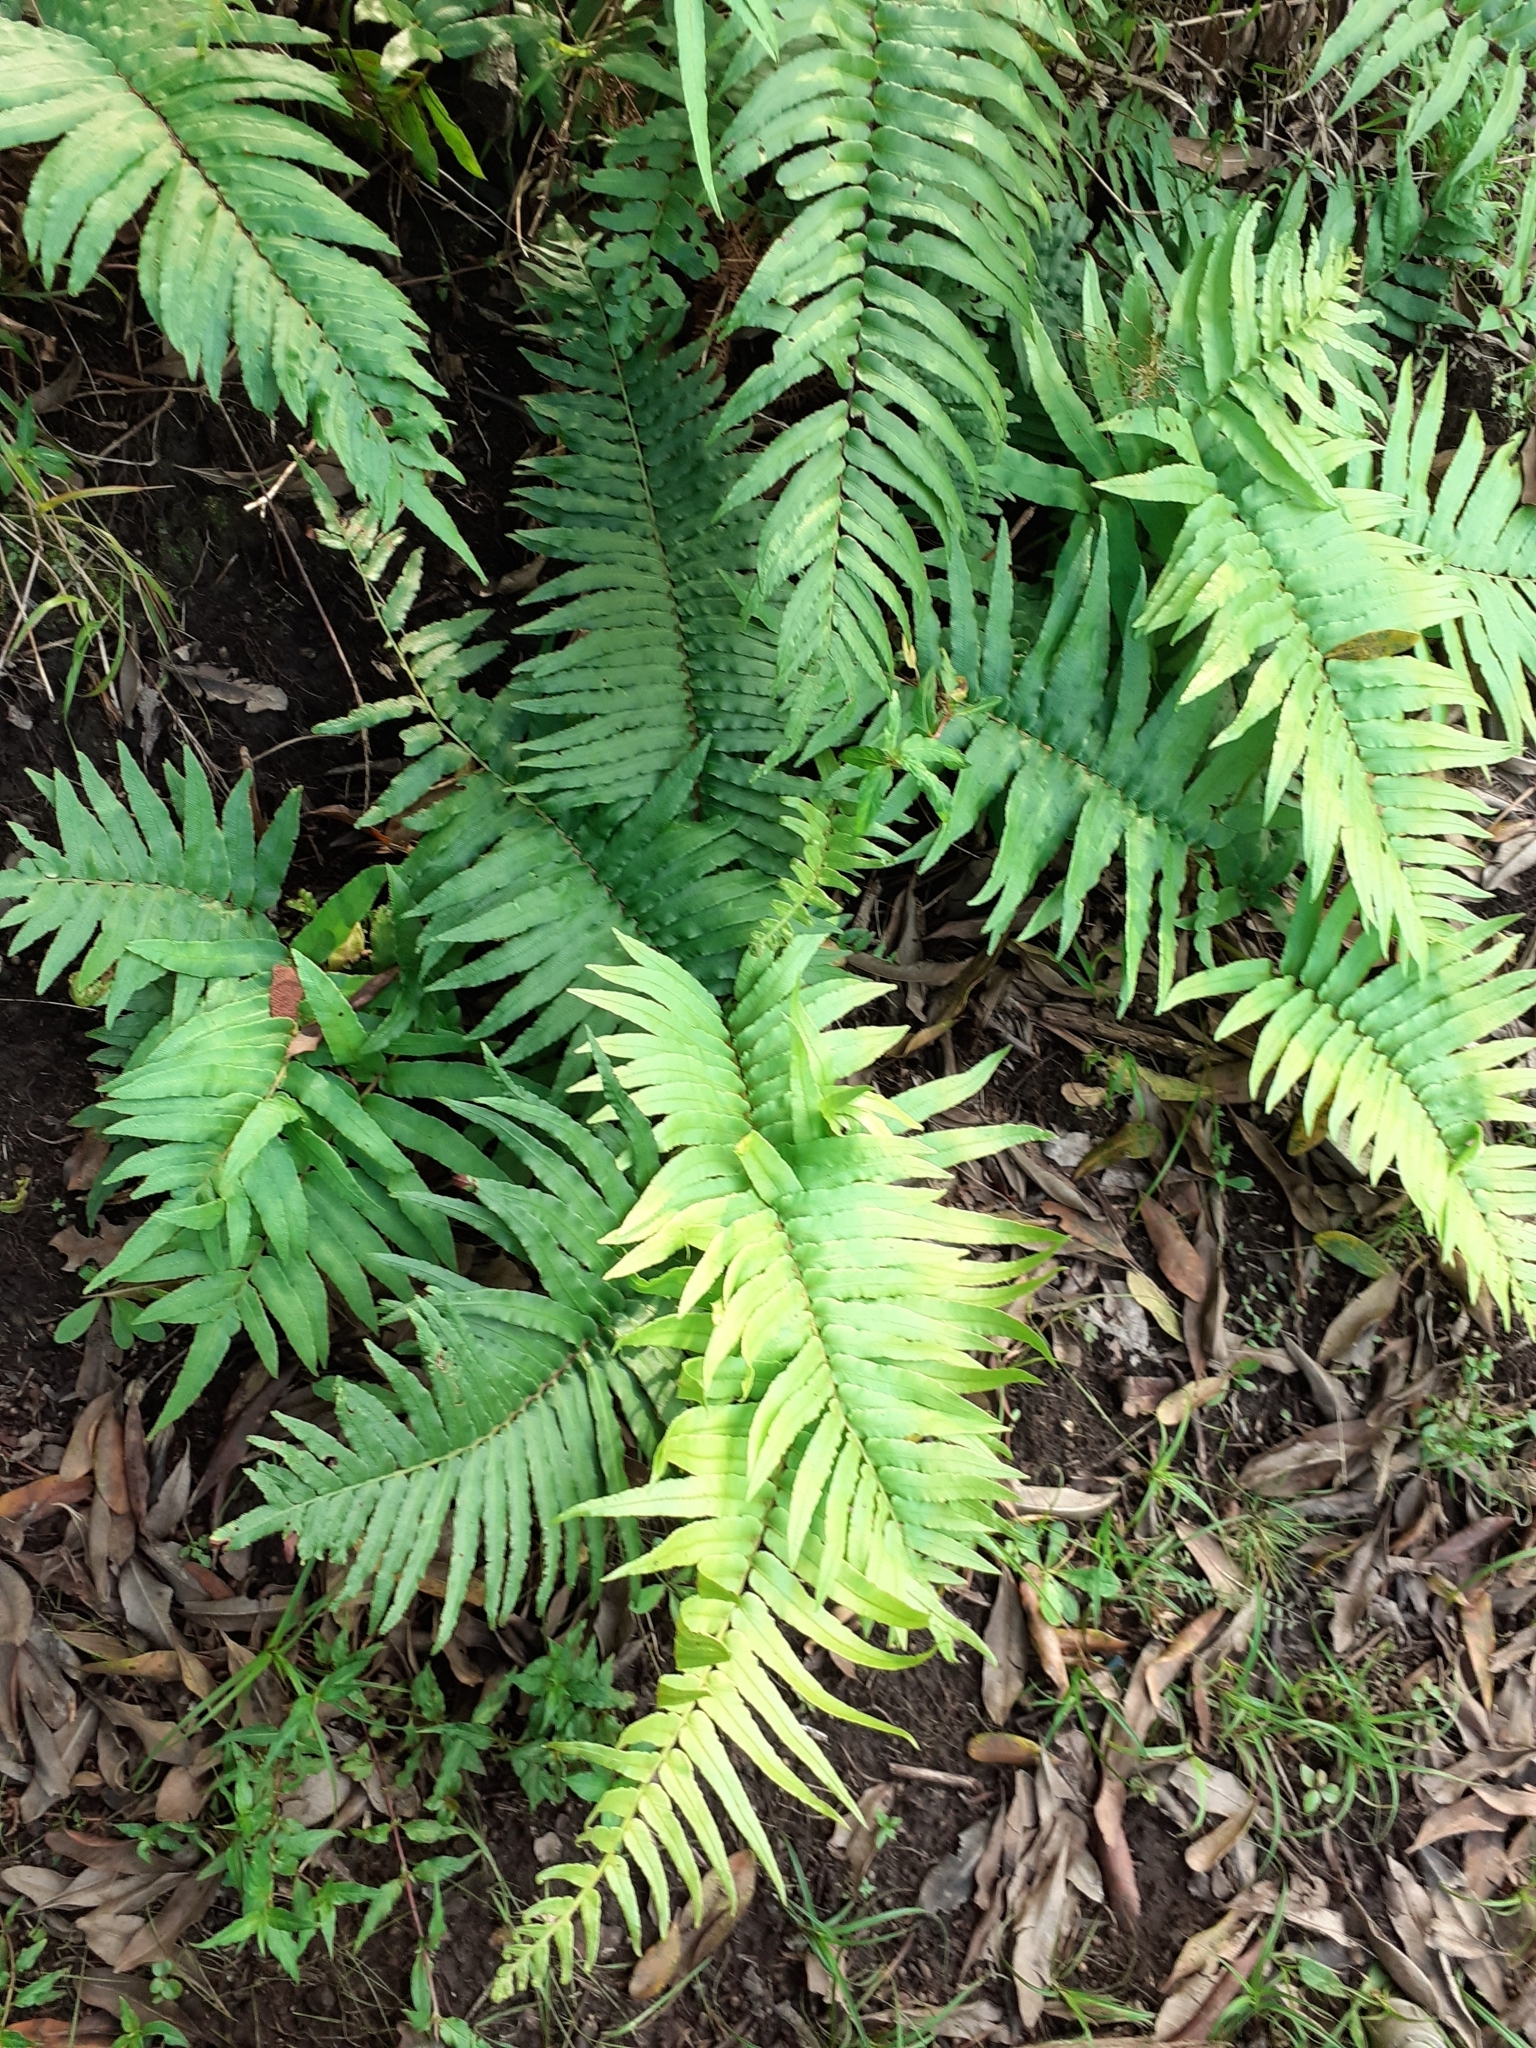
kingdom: Plantae
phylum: Tracheophyta
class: Polypodiopsida
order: Polypodiales
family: Blechnaceae
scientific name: Blechnaceae
